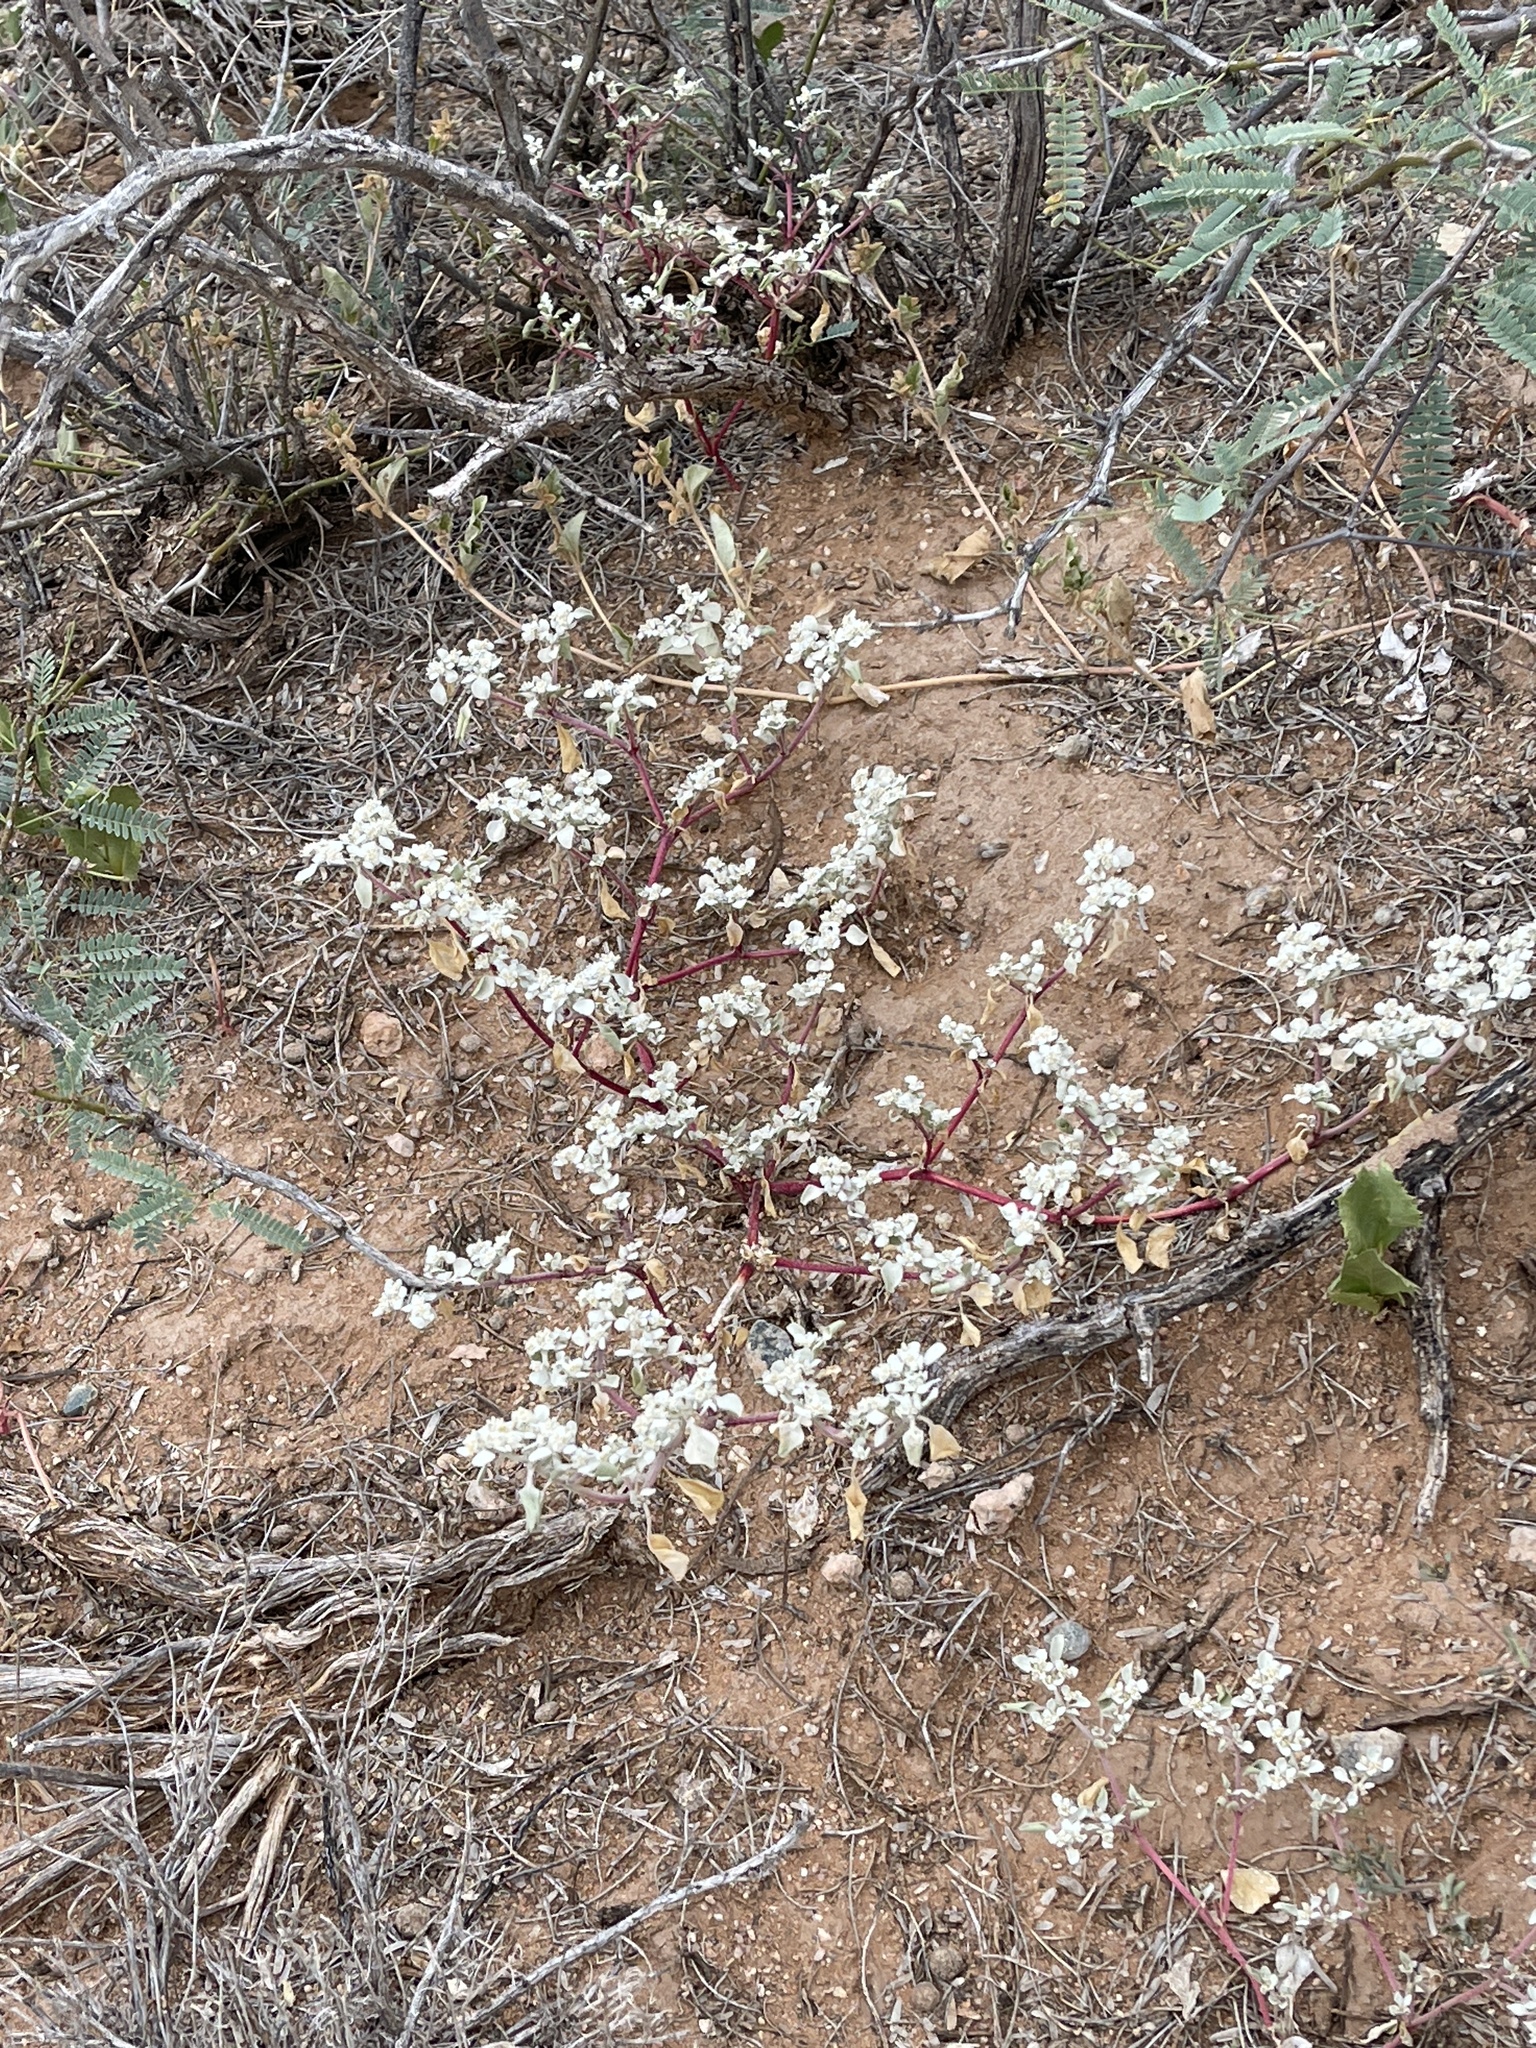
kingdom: Plantae
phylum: Tracheophyta
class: Magnoliopsida
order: Caryophyllales
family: Amaranthaceae
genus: Tidestromia
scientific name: Tidestromia lanuginosa
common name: Woolly tidestromia
